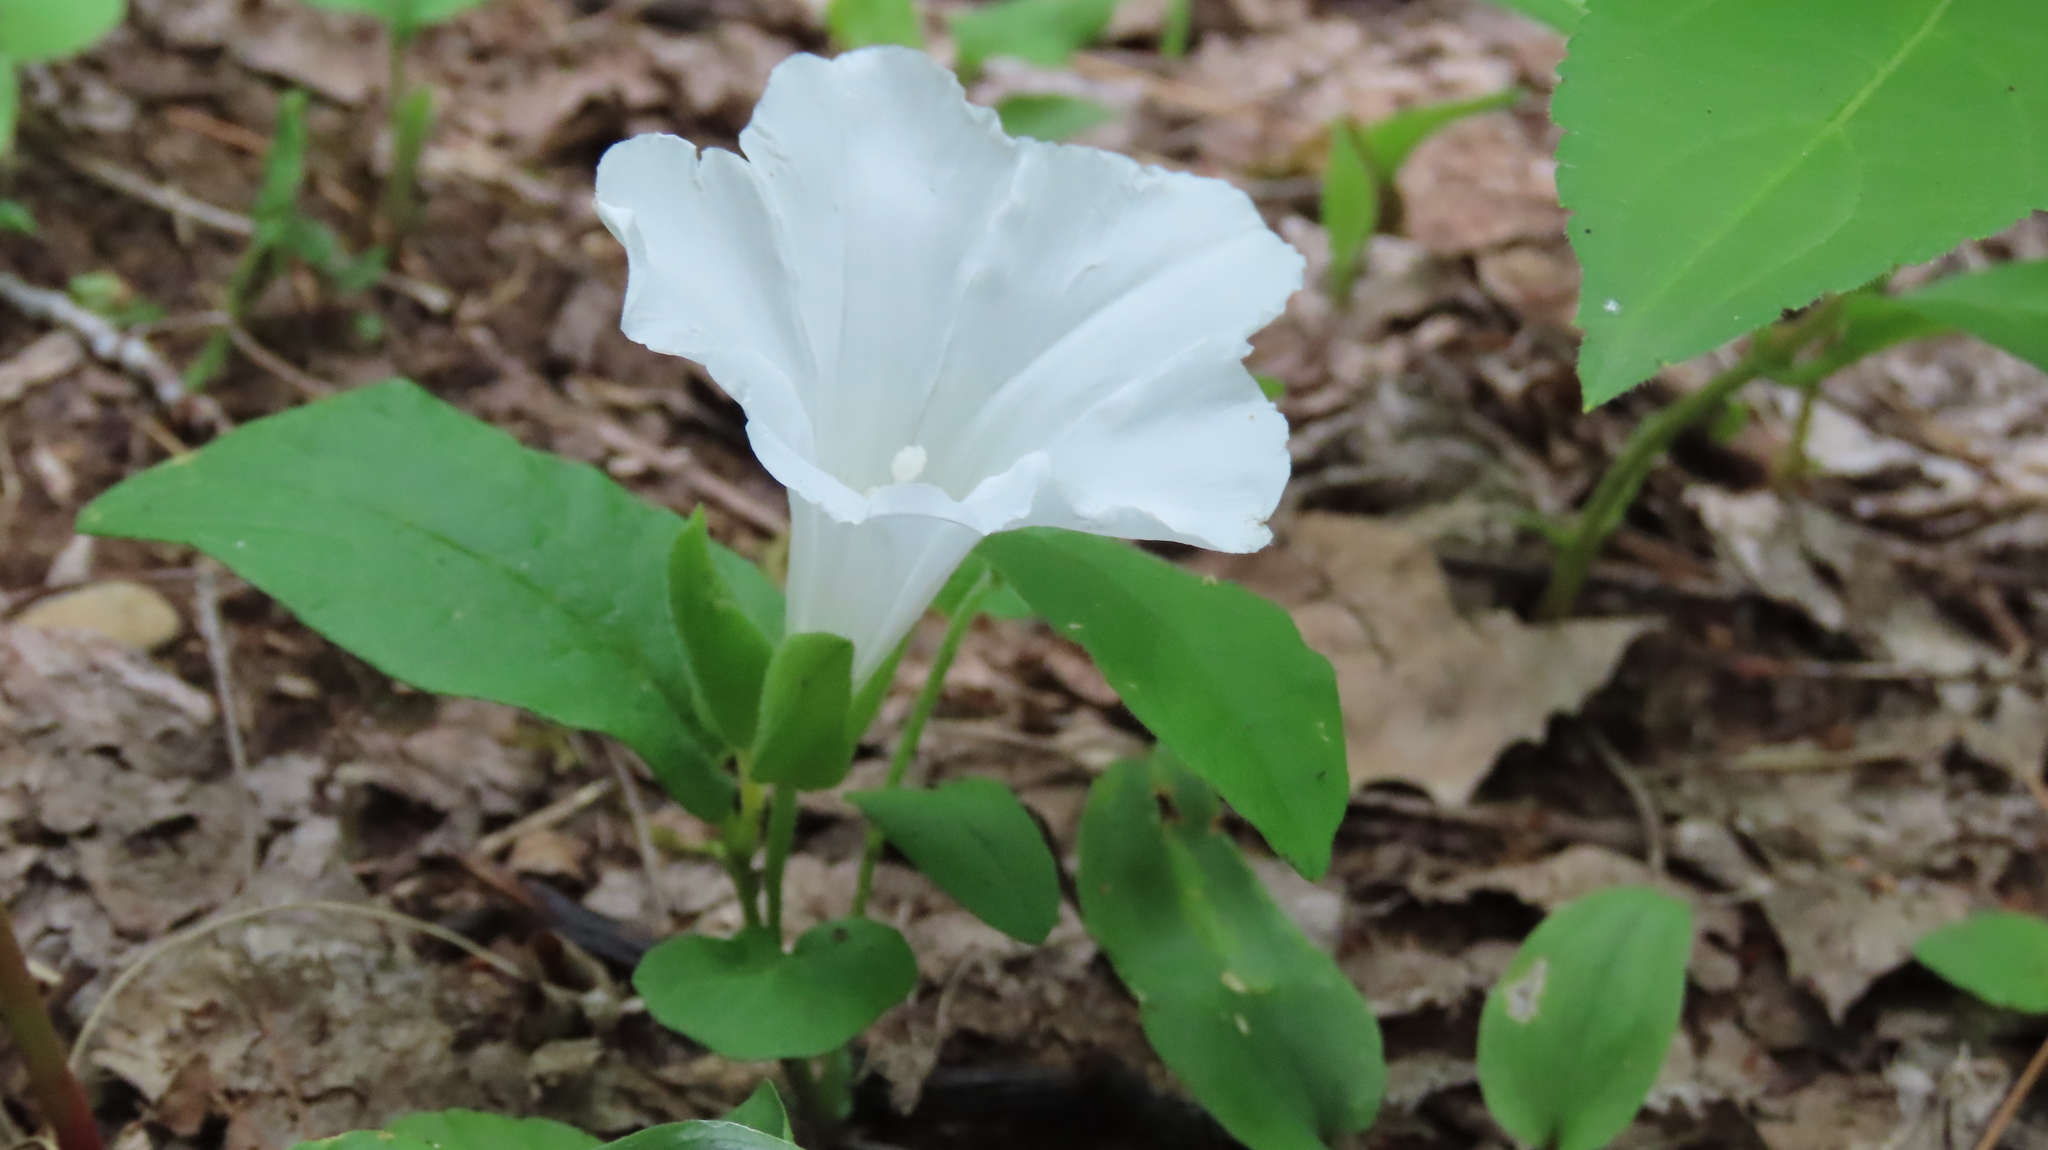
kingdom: Plantae
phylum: Tracheophyta
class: Magnoliopsida
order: Solanales
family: Convolvulaceae
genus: Calystegia
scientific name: Calystegia spithamaea
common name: Dwarf bindweed
